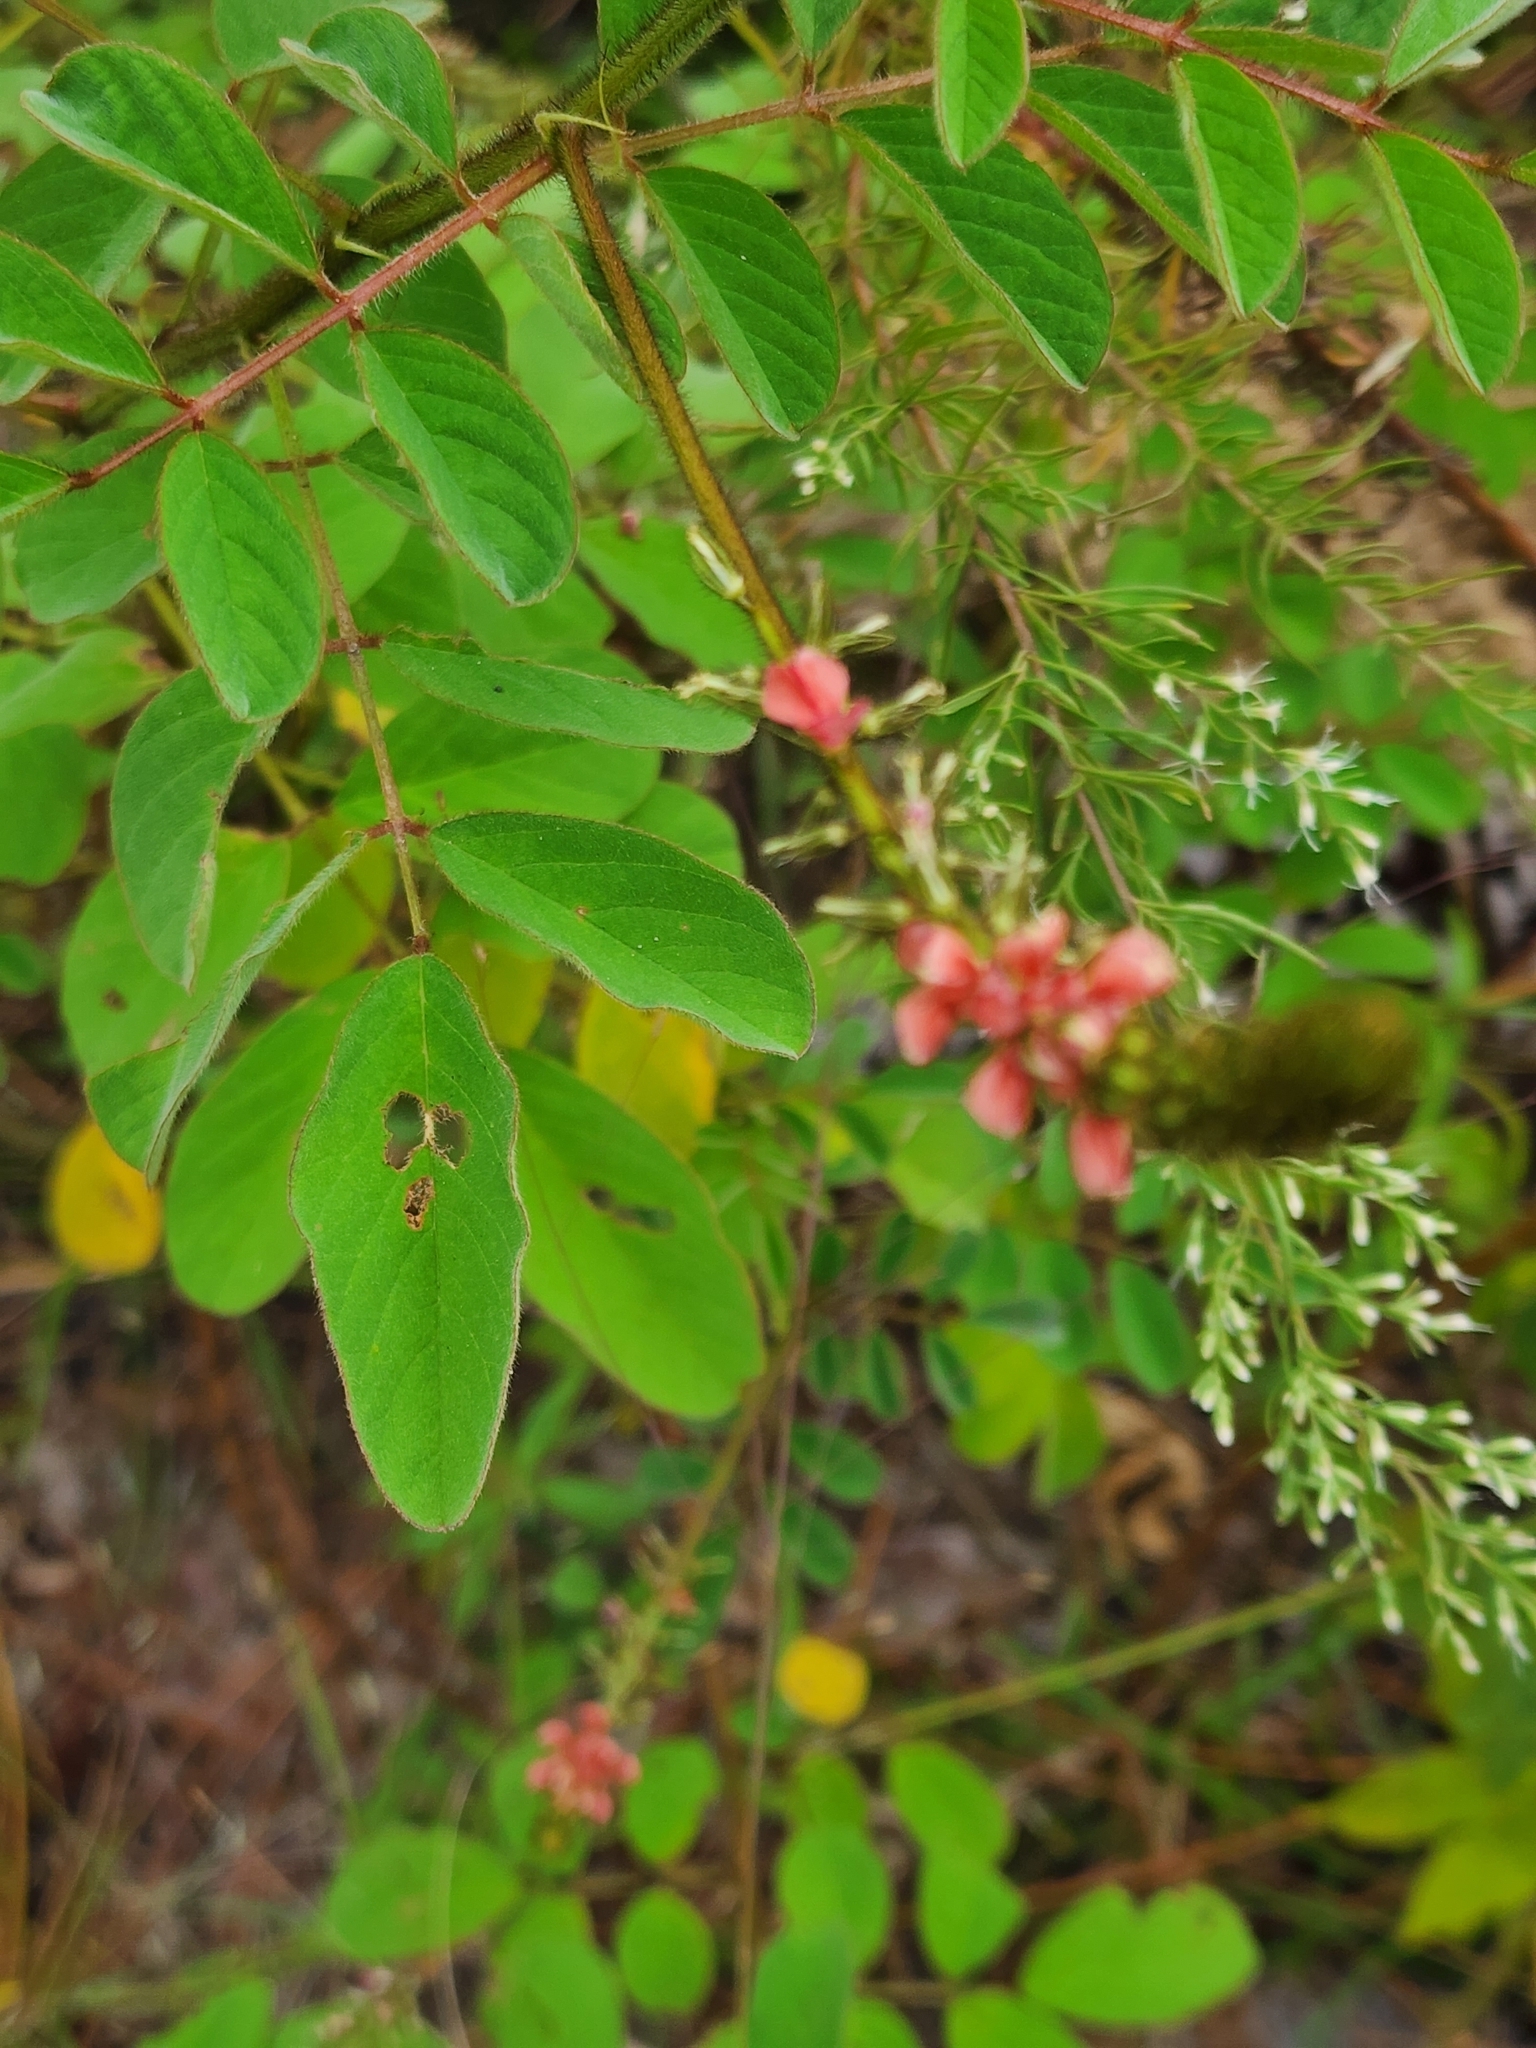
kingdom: Plantae
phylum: Tracheophyta
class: Magnoliopsida
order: Fabales
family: Fabaceae
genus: Indigofera
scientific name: Indigofera hirsuta
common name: Hairy indigo
